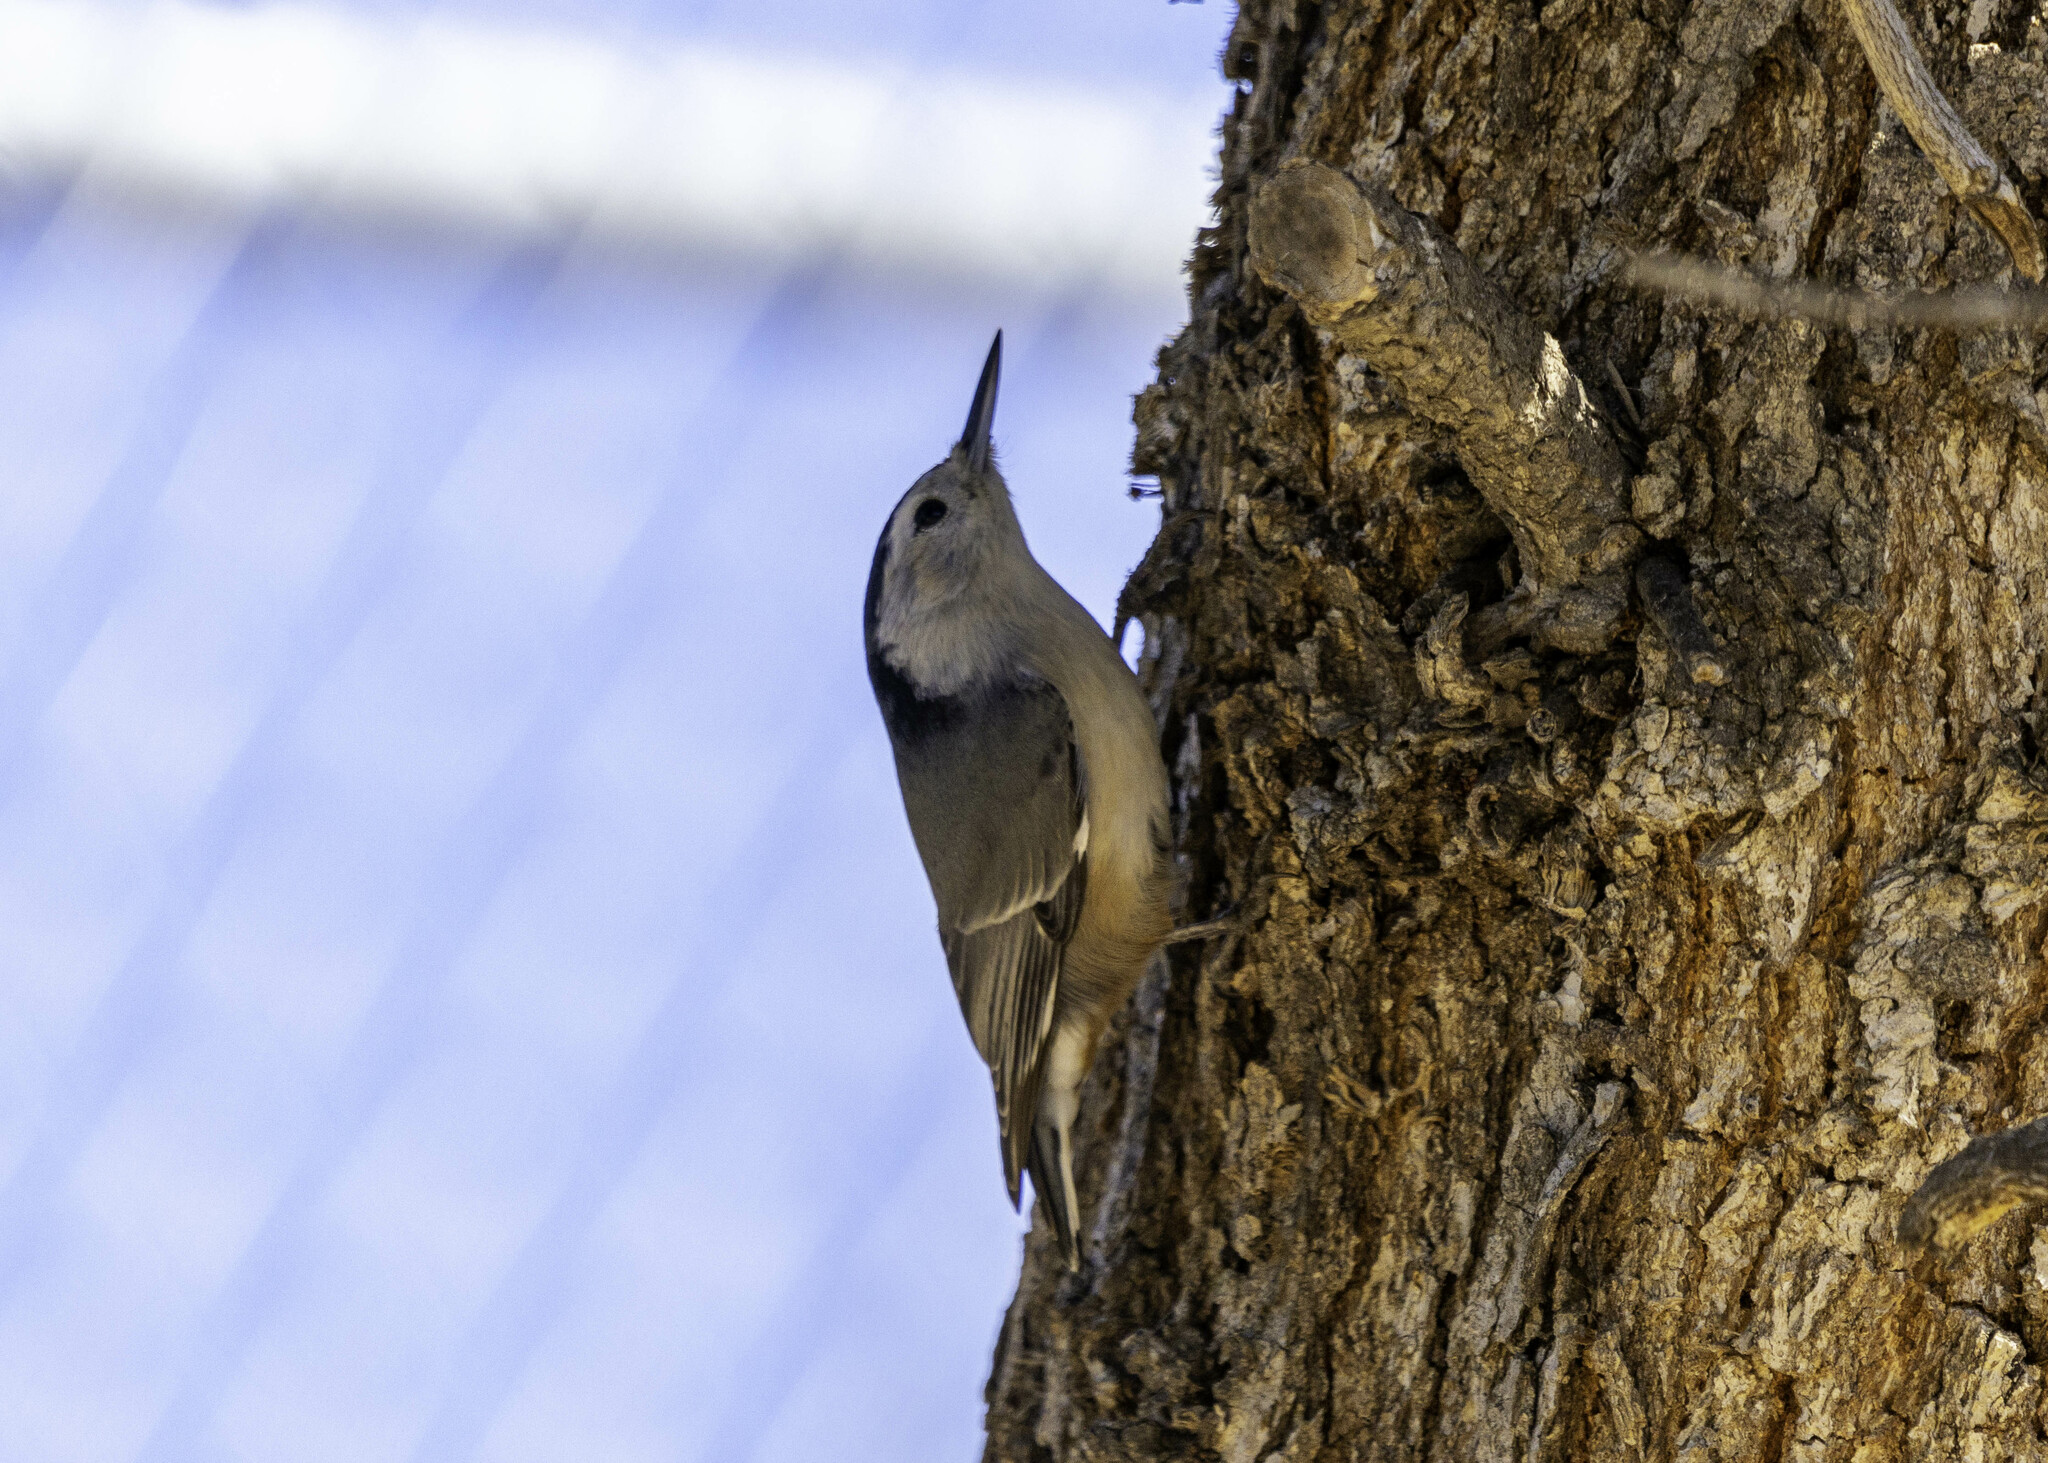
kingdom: Animalia
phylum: Chordata
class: Aves
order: Passeriformes
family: Sittidae
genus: Sitta
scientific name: Sitta carolinensis
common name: White-breasted nuthatch
